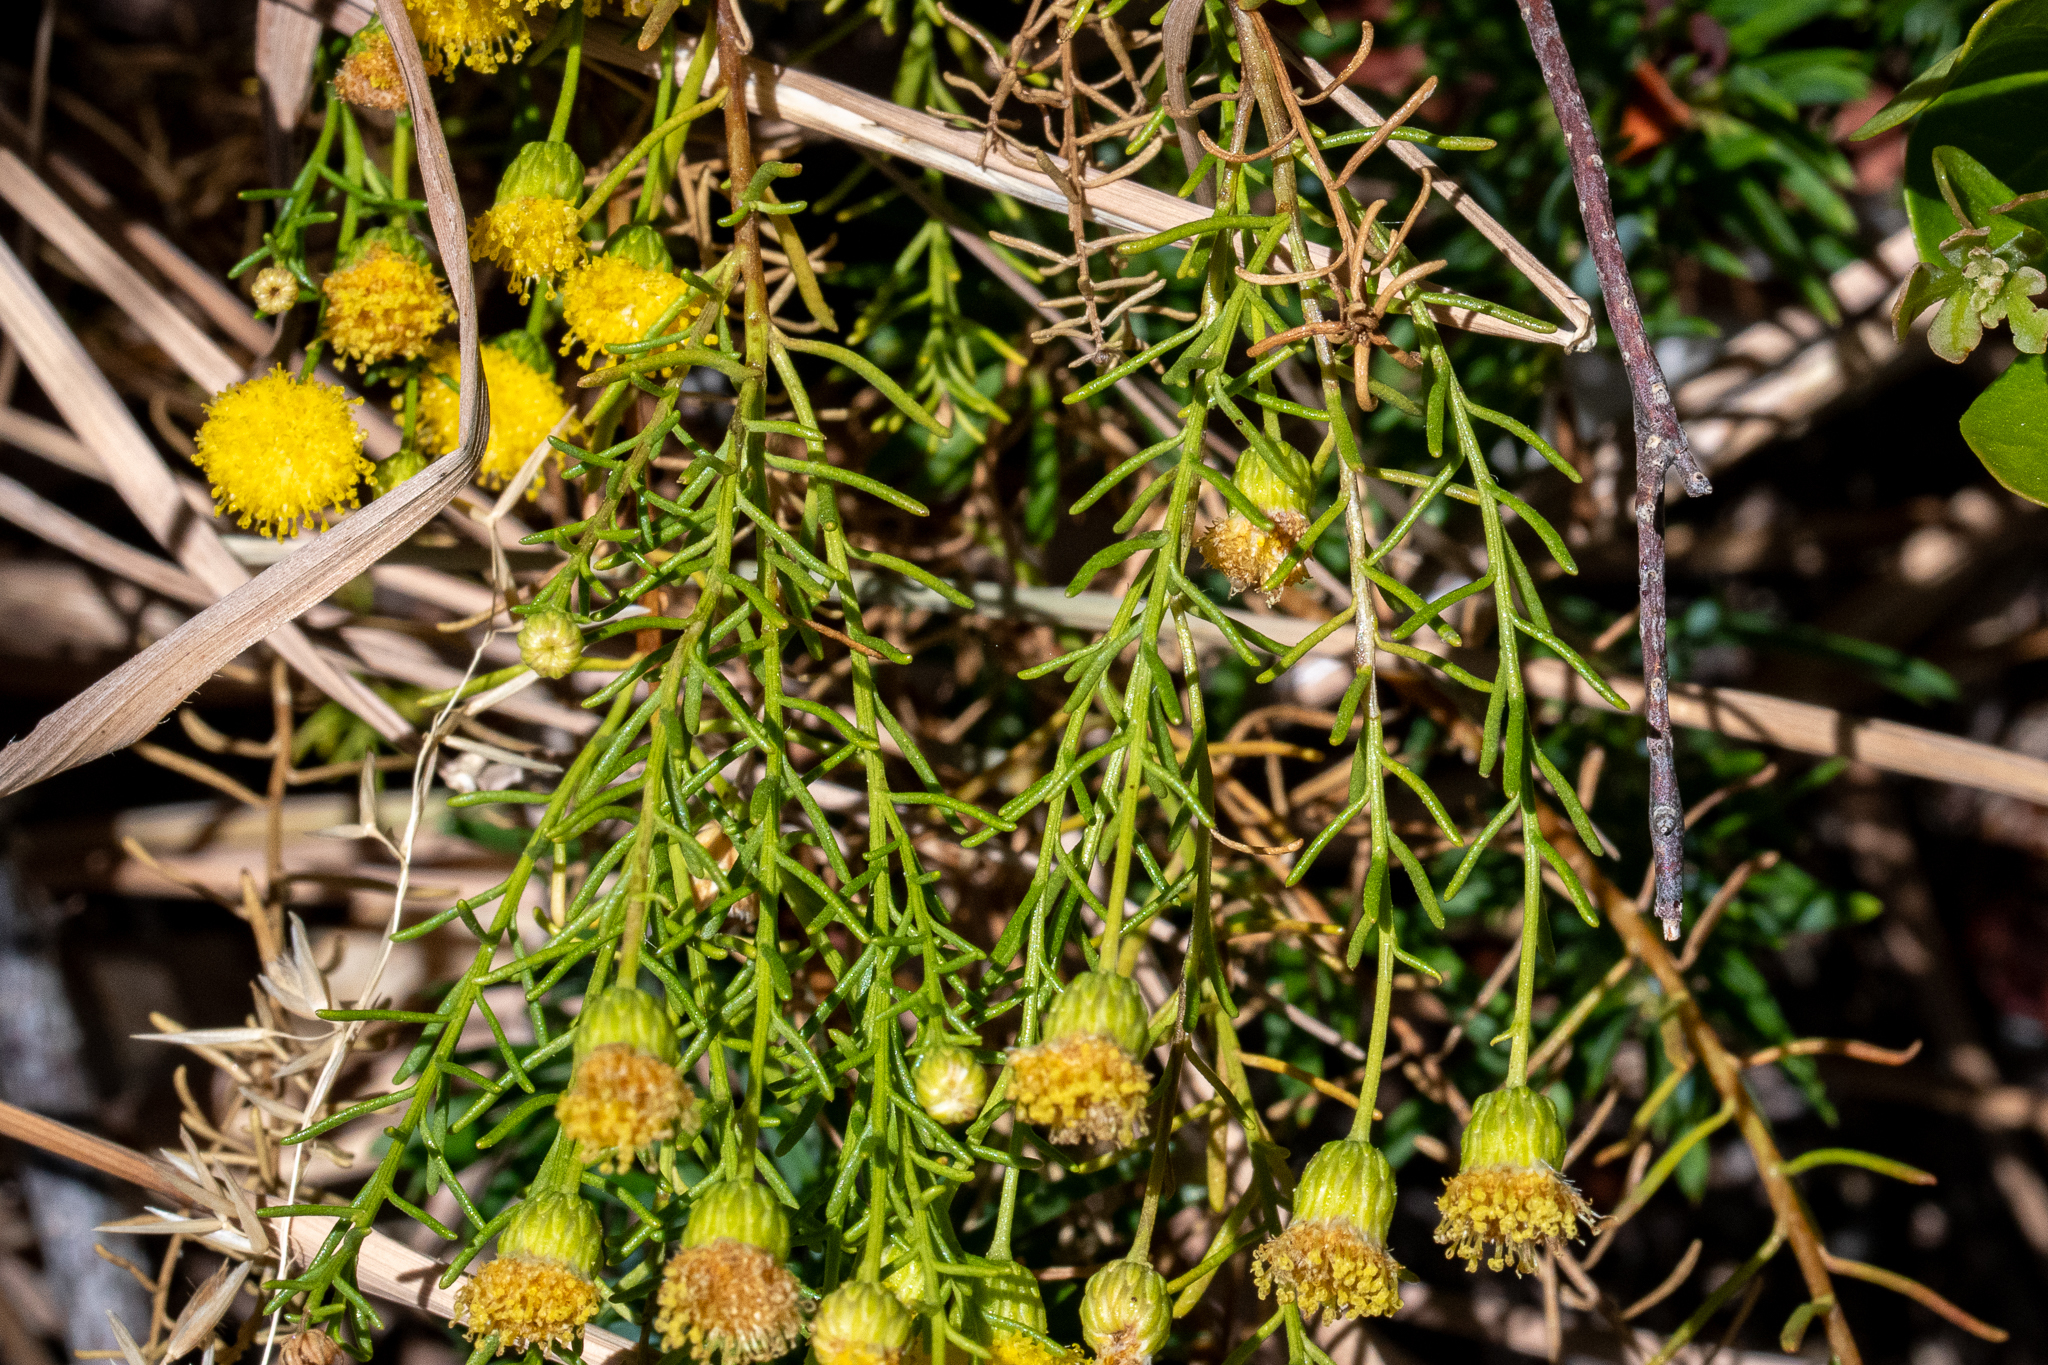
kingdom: Plantae
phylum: Tracheophyta
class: Magnoliopsida
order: Asterales
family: Asteraceae
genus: Chrysocoma
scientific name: Chrysocoma ciliata
